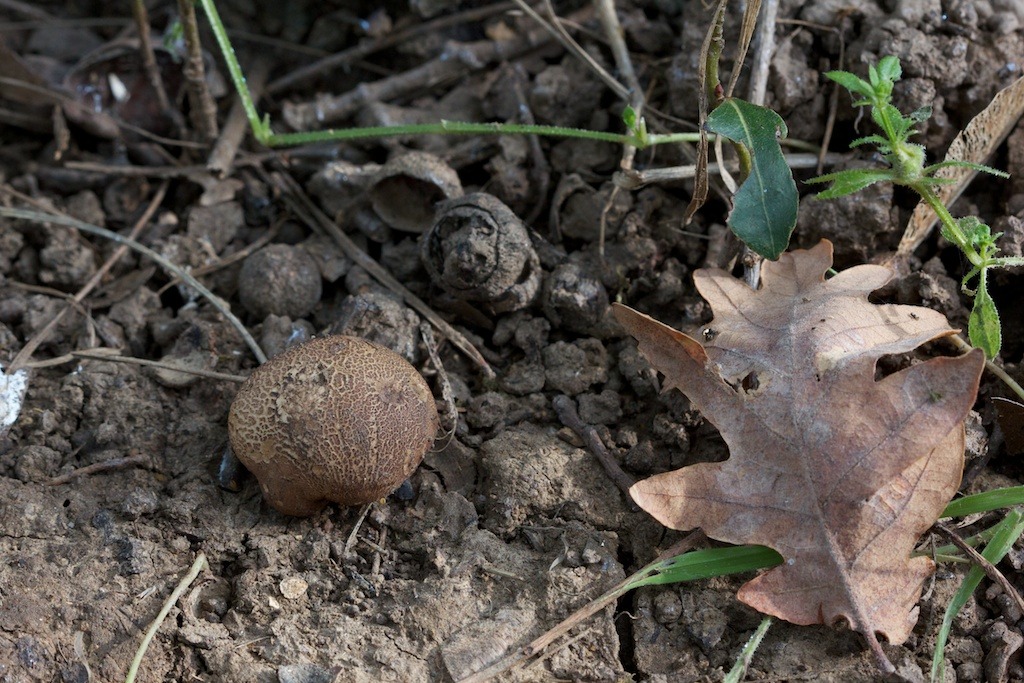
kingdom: Fungi
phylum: Basidiomycota
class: Agaricomycetes
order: Boletales
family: Sclerodermataceae
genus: Scleroderma
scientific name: Scleroderma verrucosum
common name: Scaly earthball
